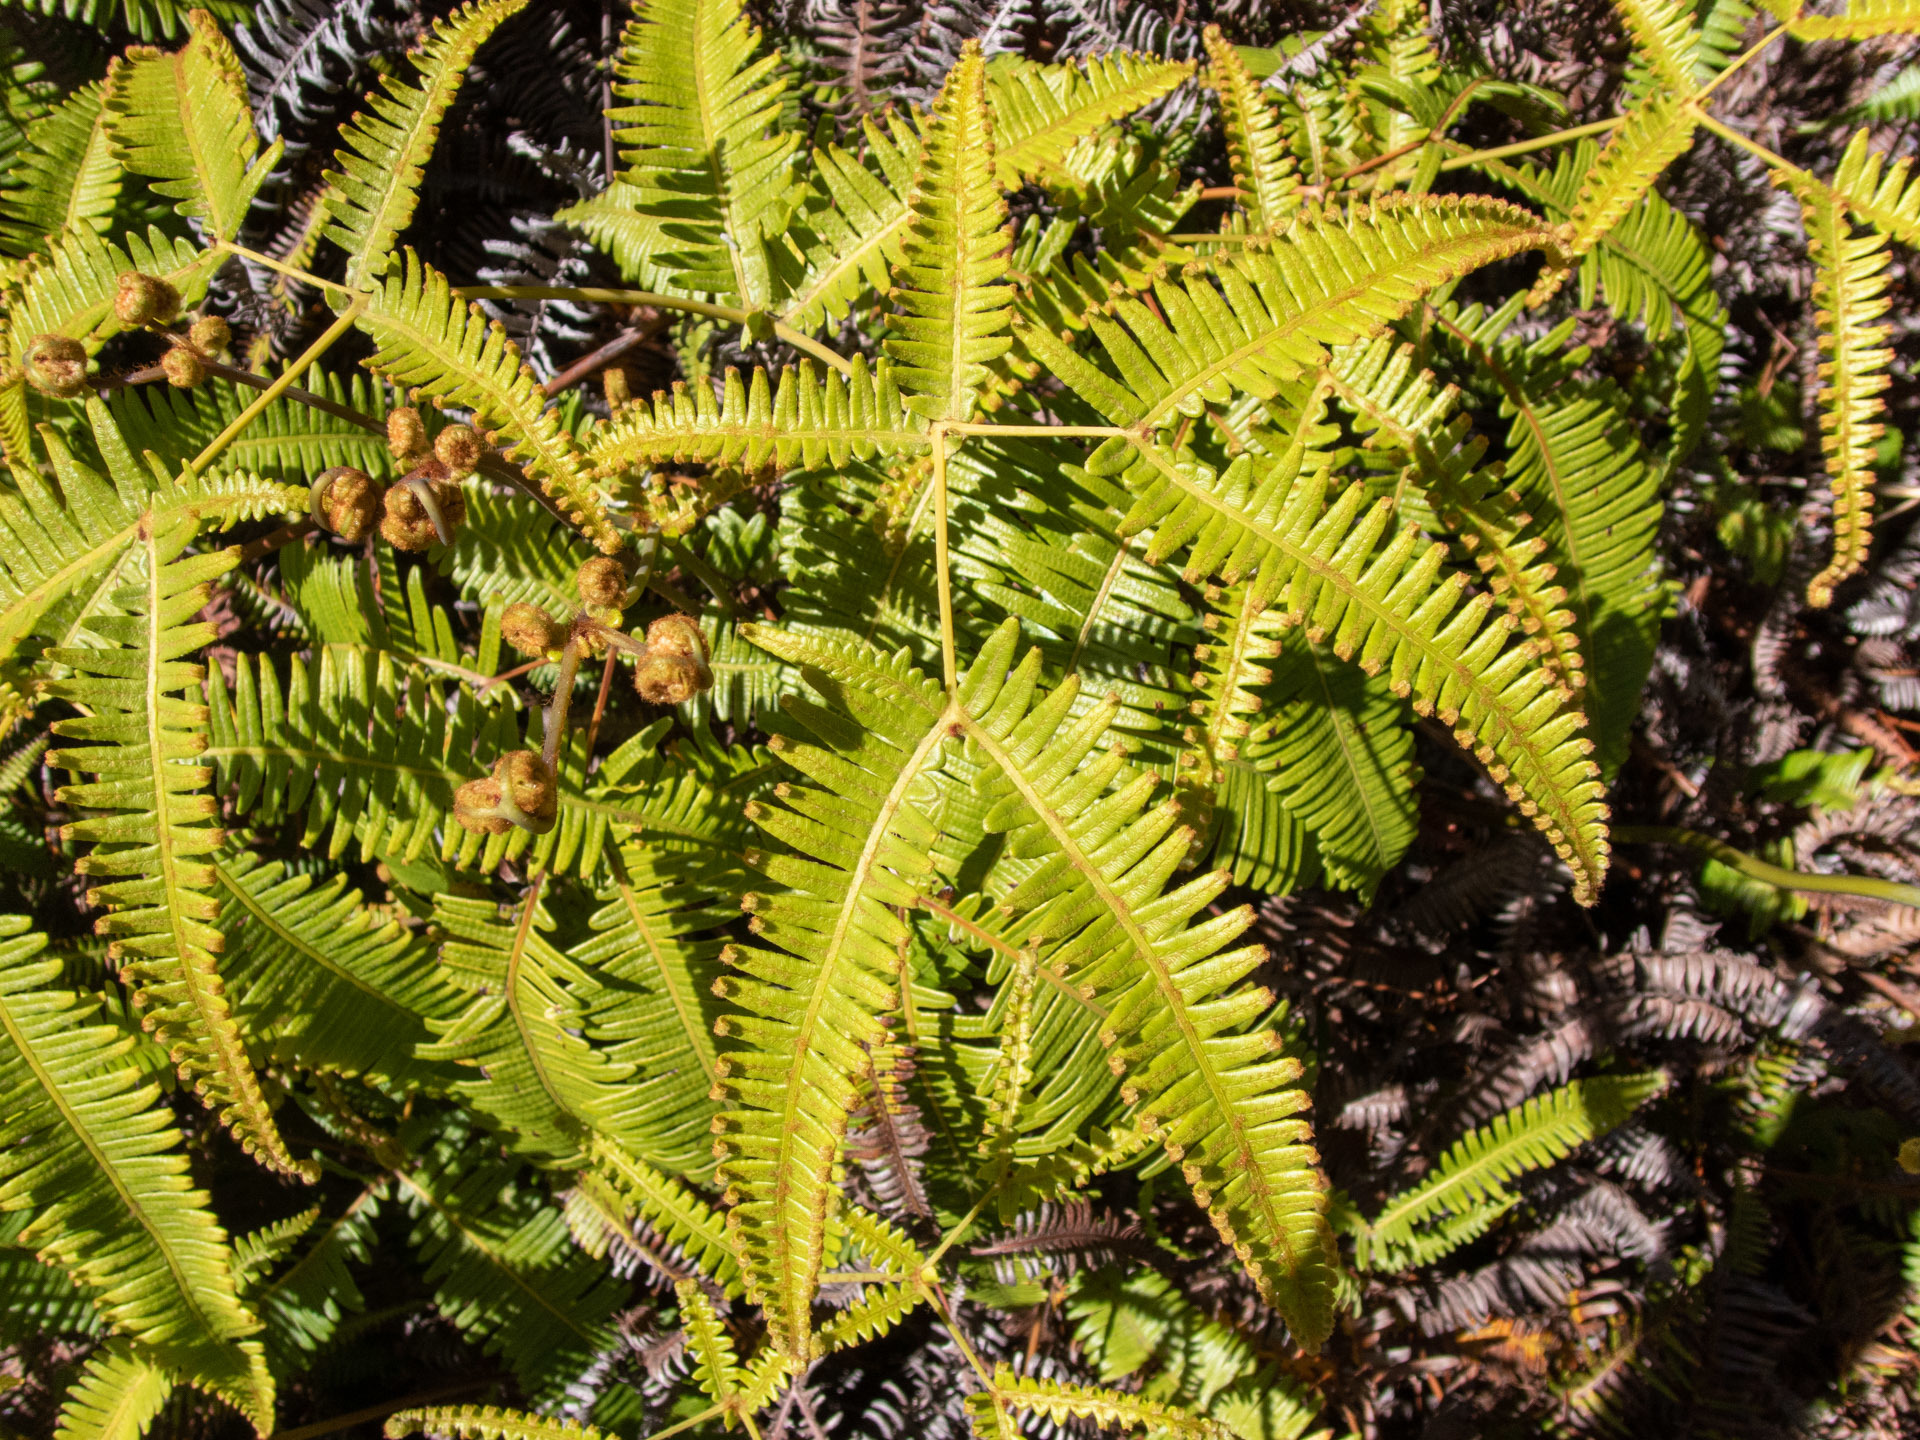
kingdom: Plantae
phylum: Tracheophyta
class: Polypodiopsida
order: Gleicheniales
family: Gleicheniaceae
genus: Dicranopteris
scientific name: Dicranopteris linearis
